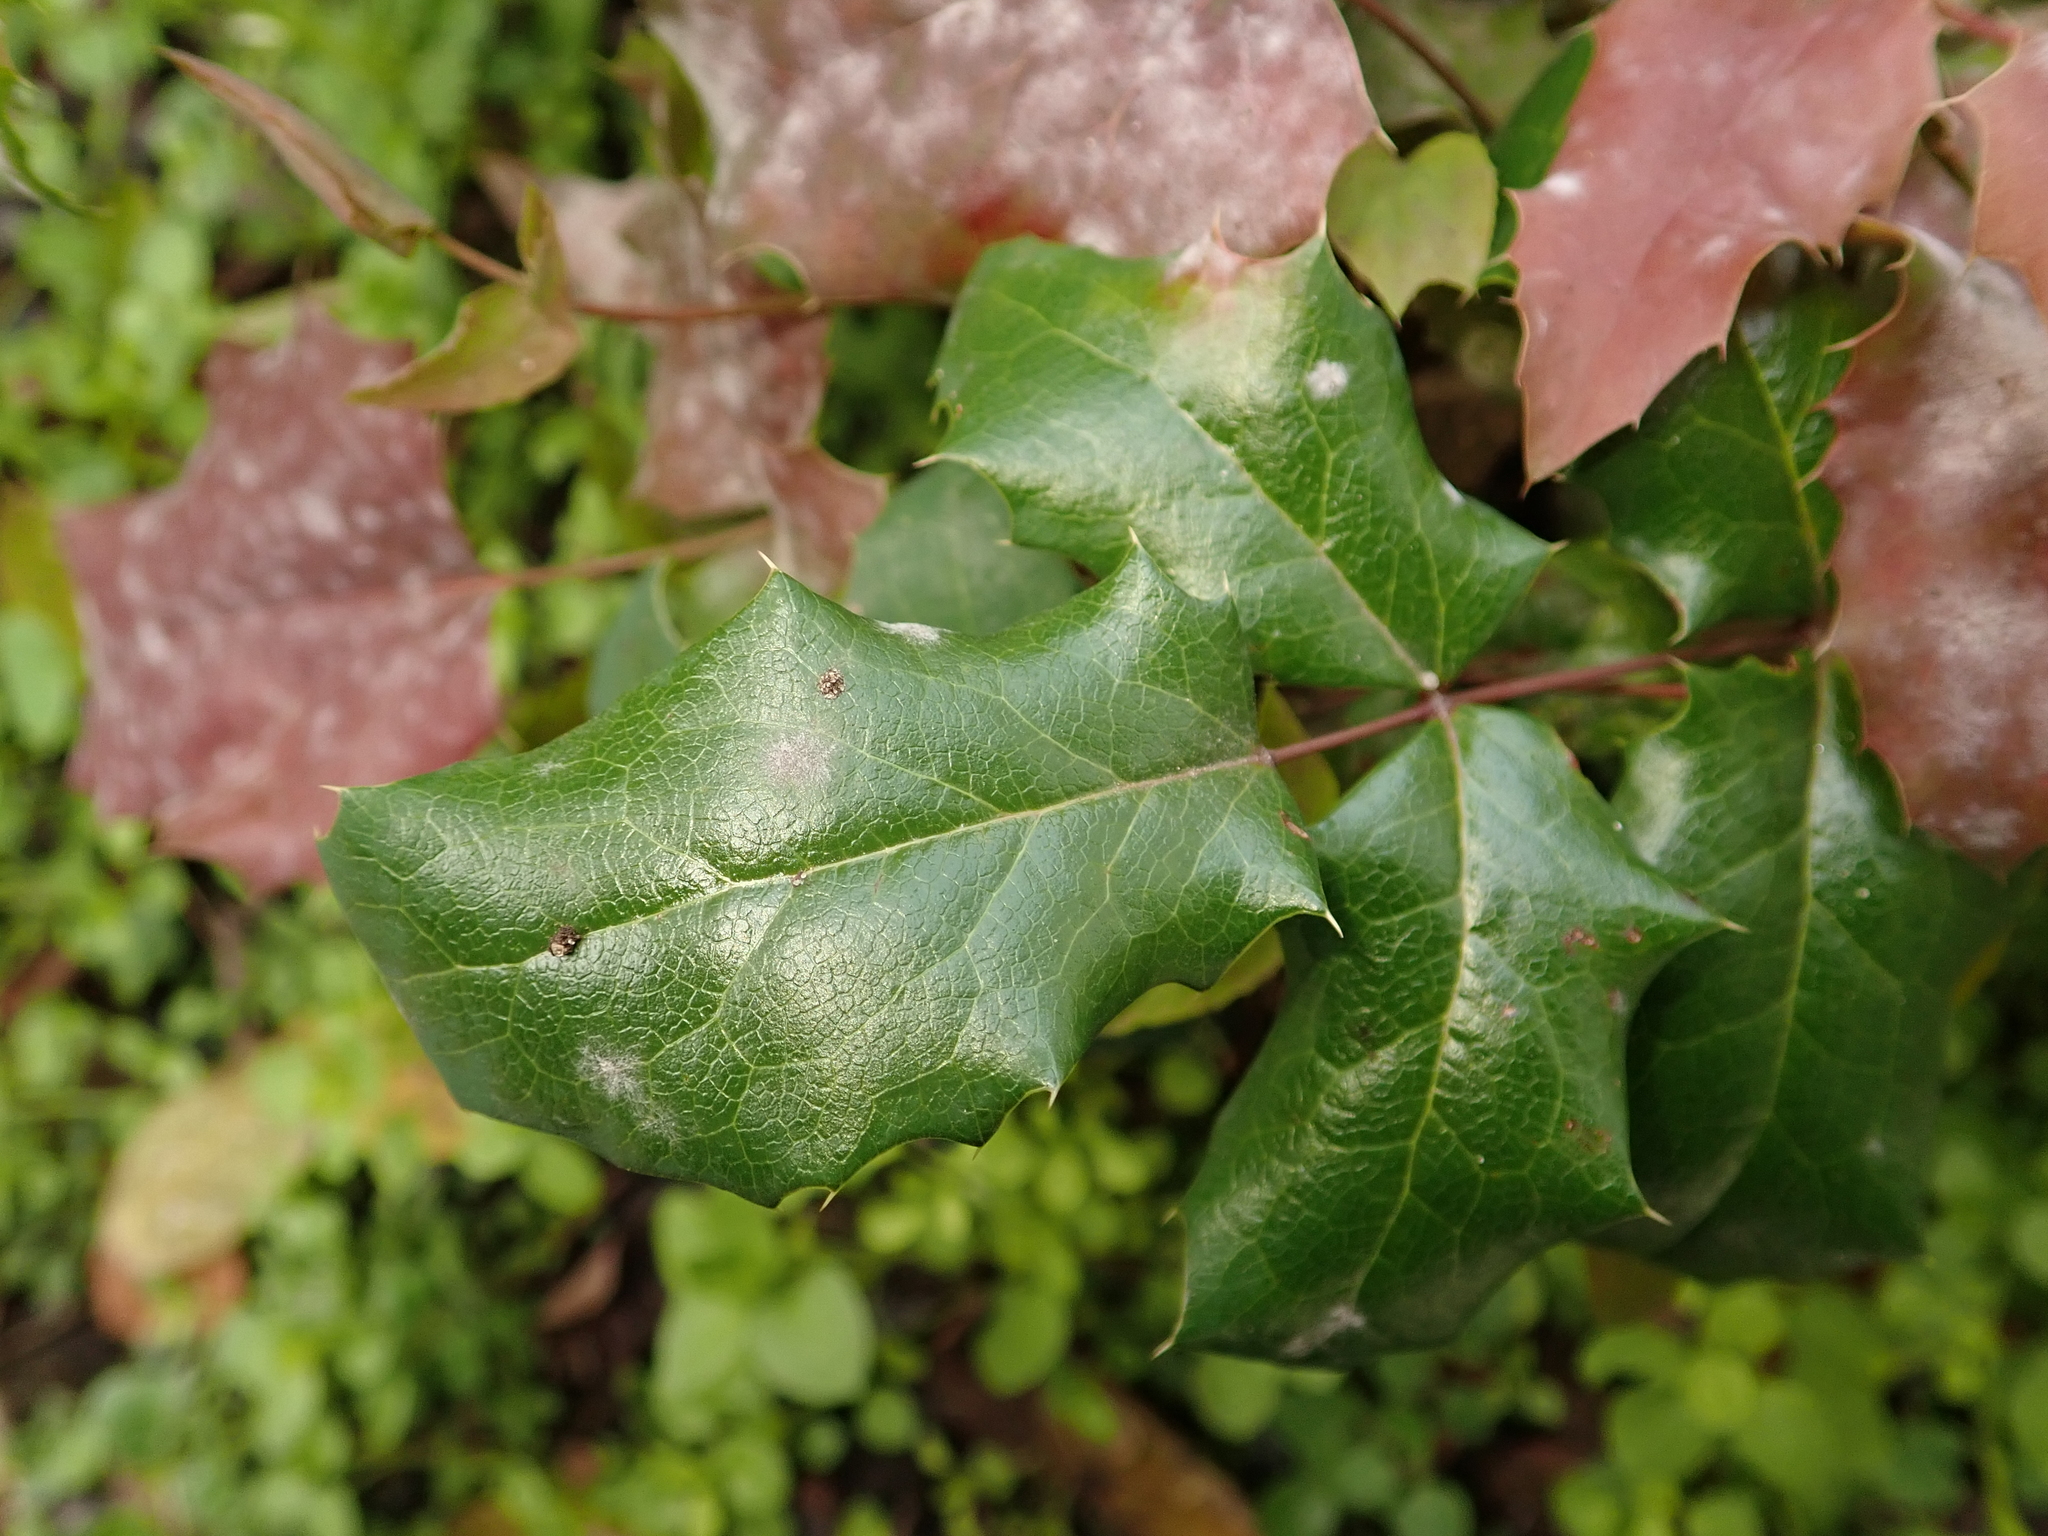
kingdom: Plantae
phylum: Tracheophyta
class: Magnoliopsida
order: Ranunculales
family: Berberidaceae
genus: Mahonia
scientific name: Mahonia aquifolium
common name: Oregon-grape
